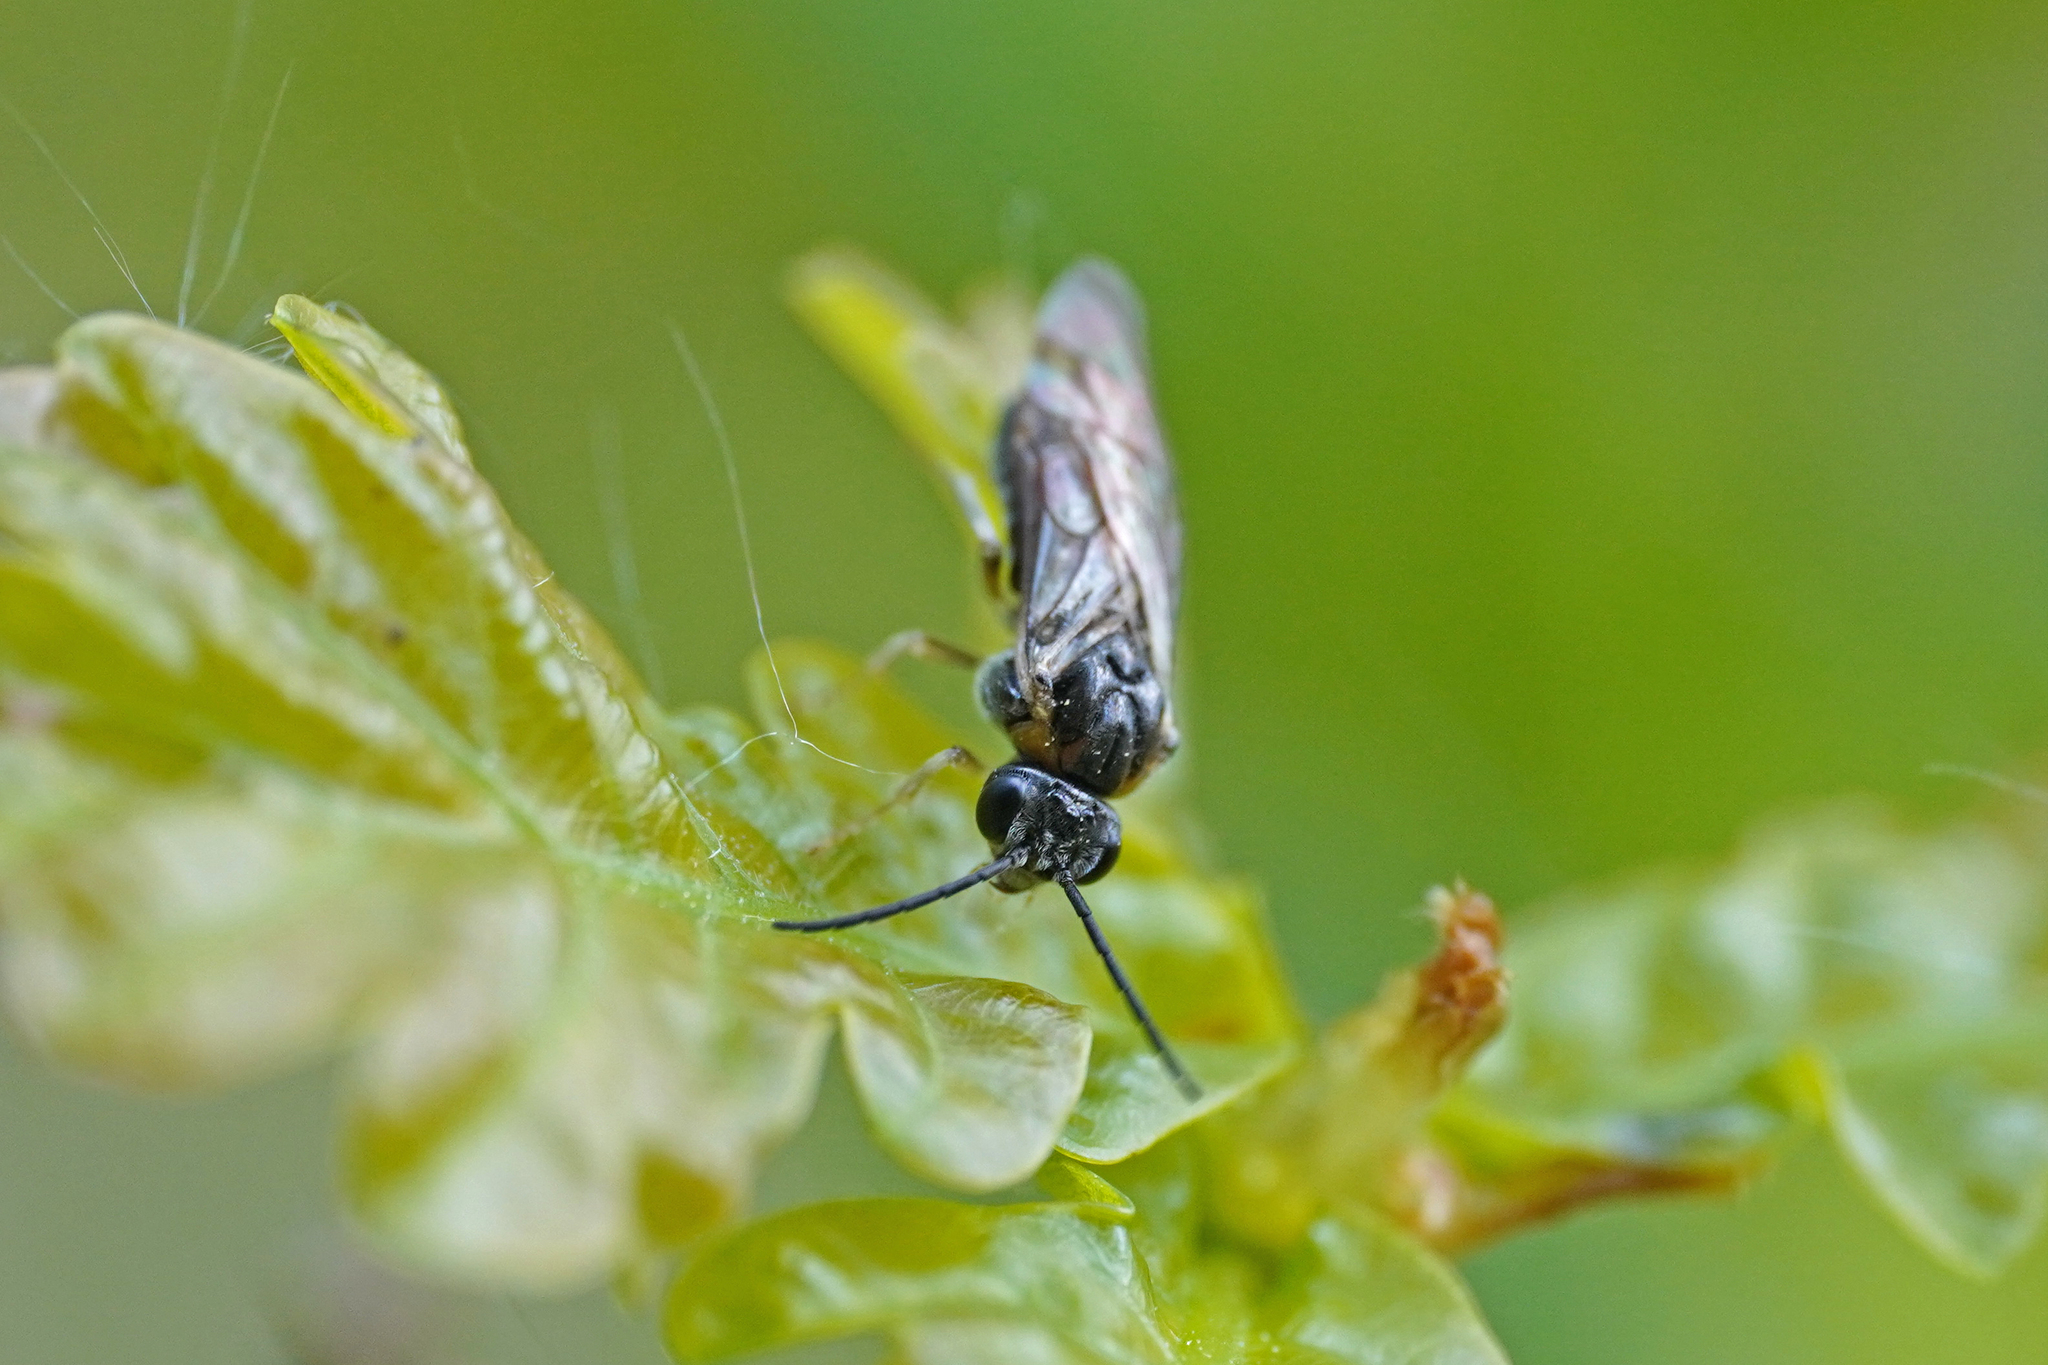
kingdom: Animalia
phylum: Arthropoda
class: Insecta
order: Hymenoptera
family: Tenthredinidae
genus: Mesoneura
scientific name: Mesoneura opaca
